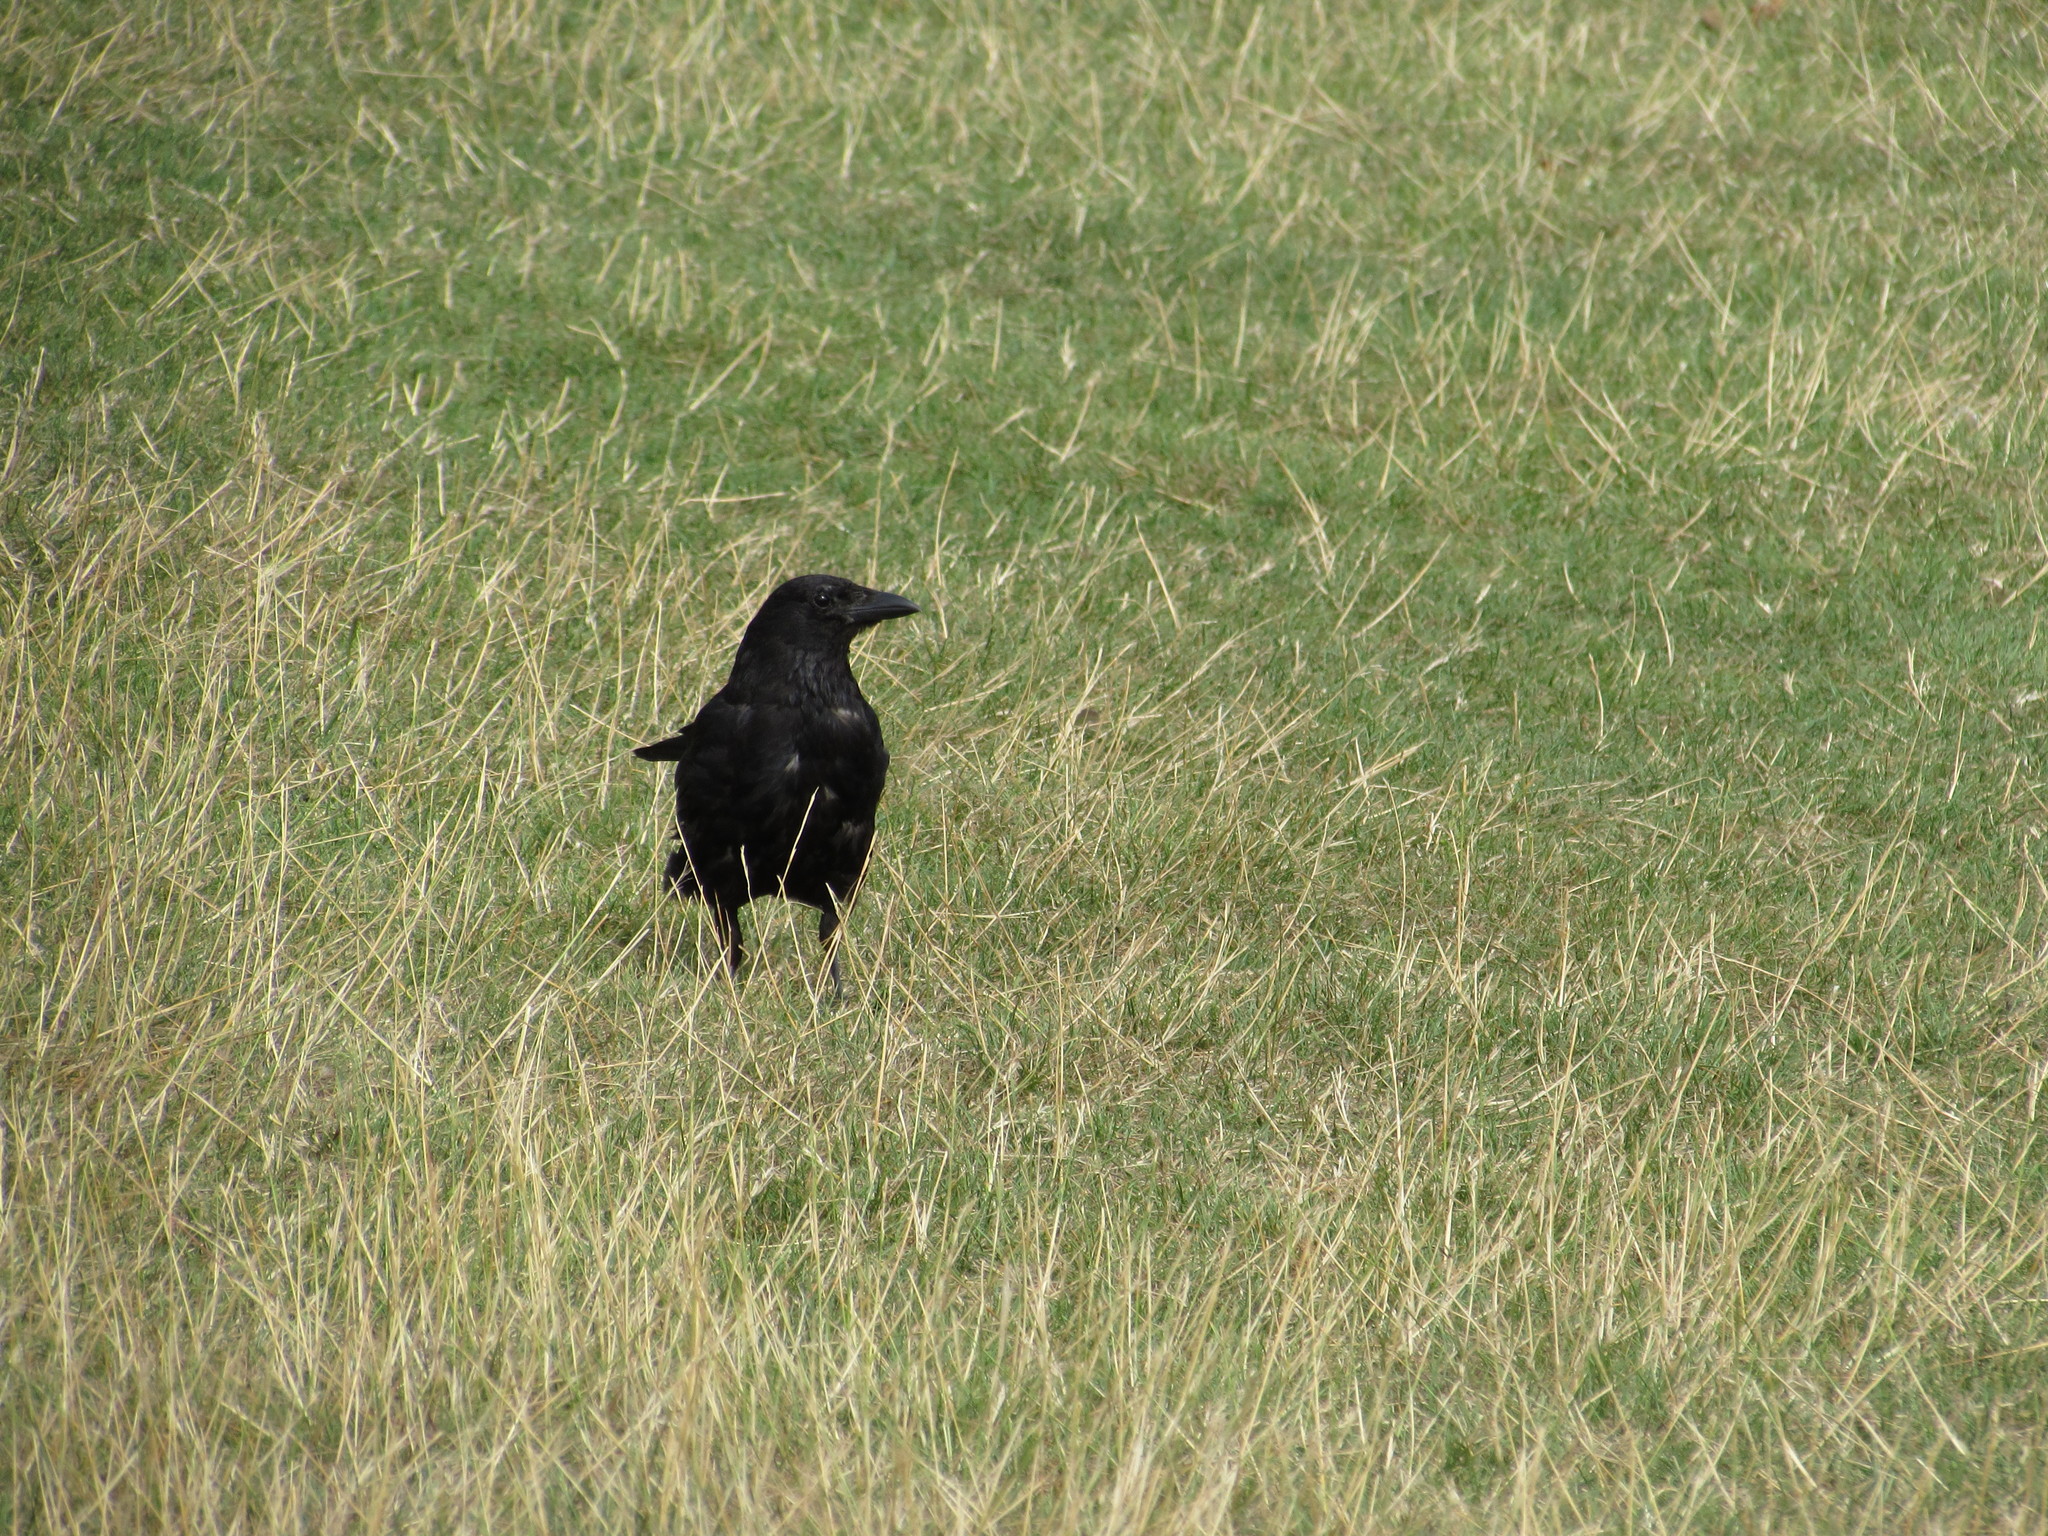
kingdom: Animalia
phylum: Chordata
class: Aves
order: Passeriformes
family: Corvidae
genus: Corvus
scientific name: Corvus corone
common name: Carrion crow
